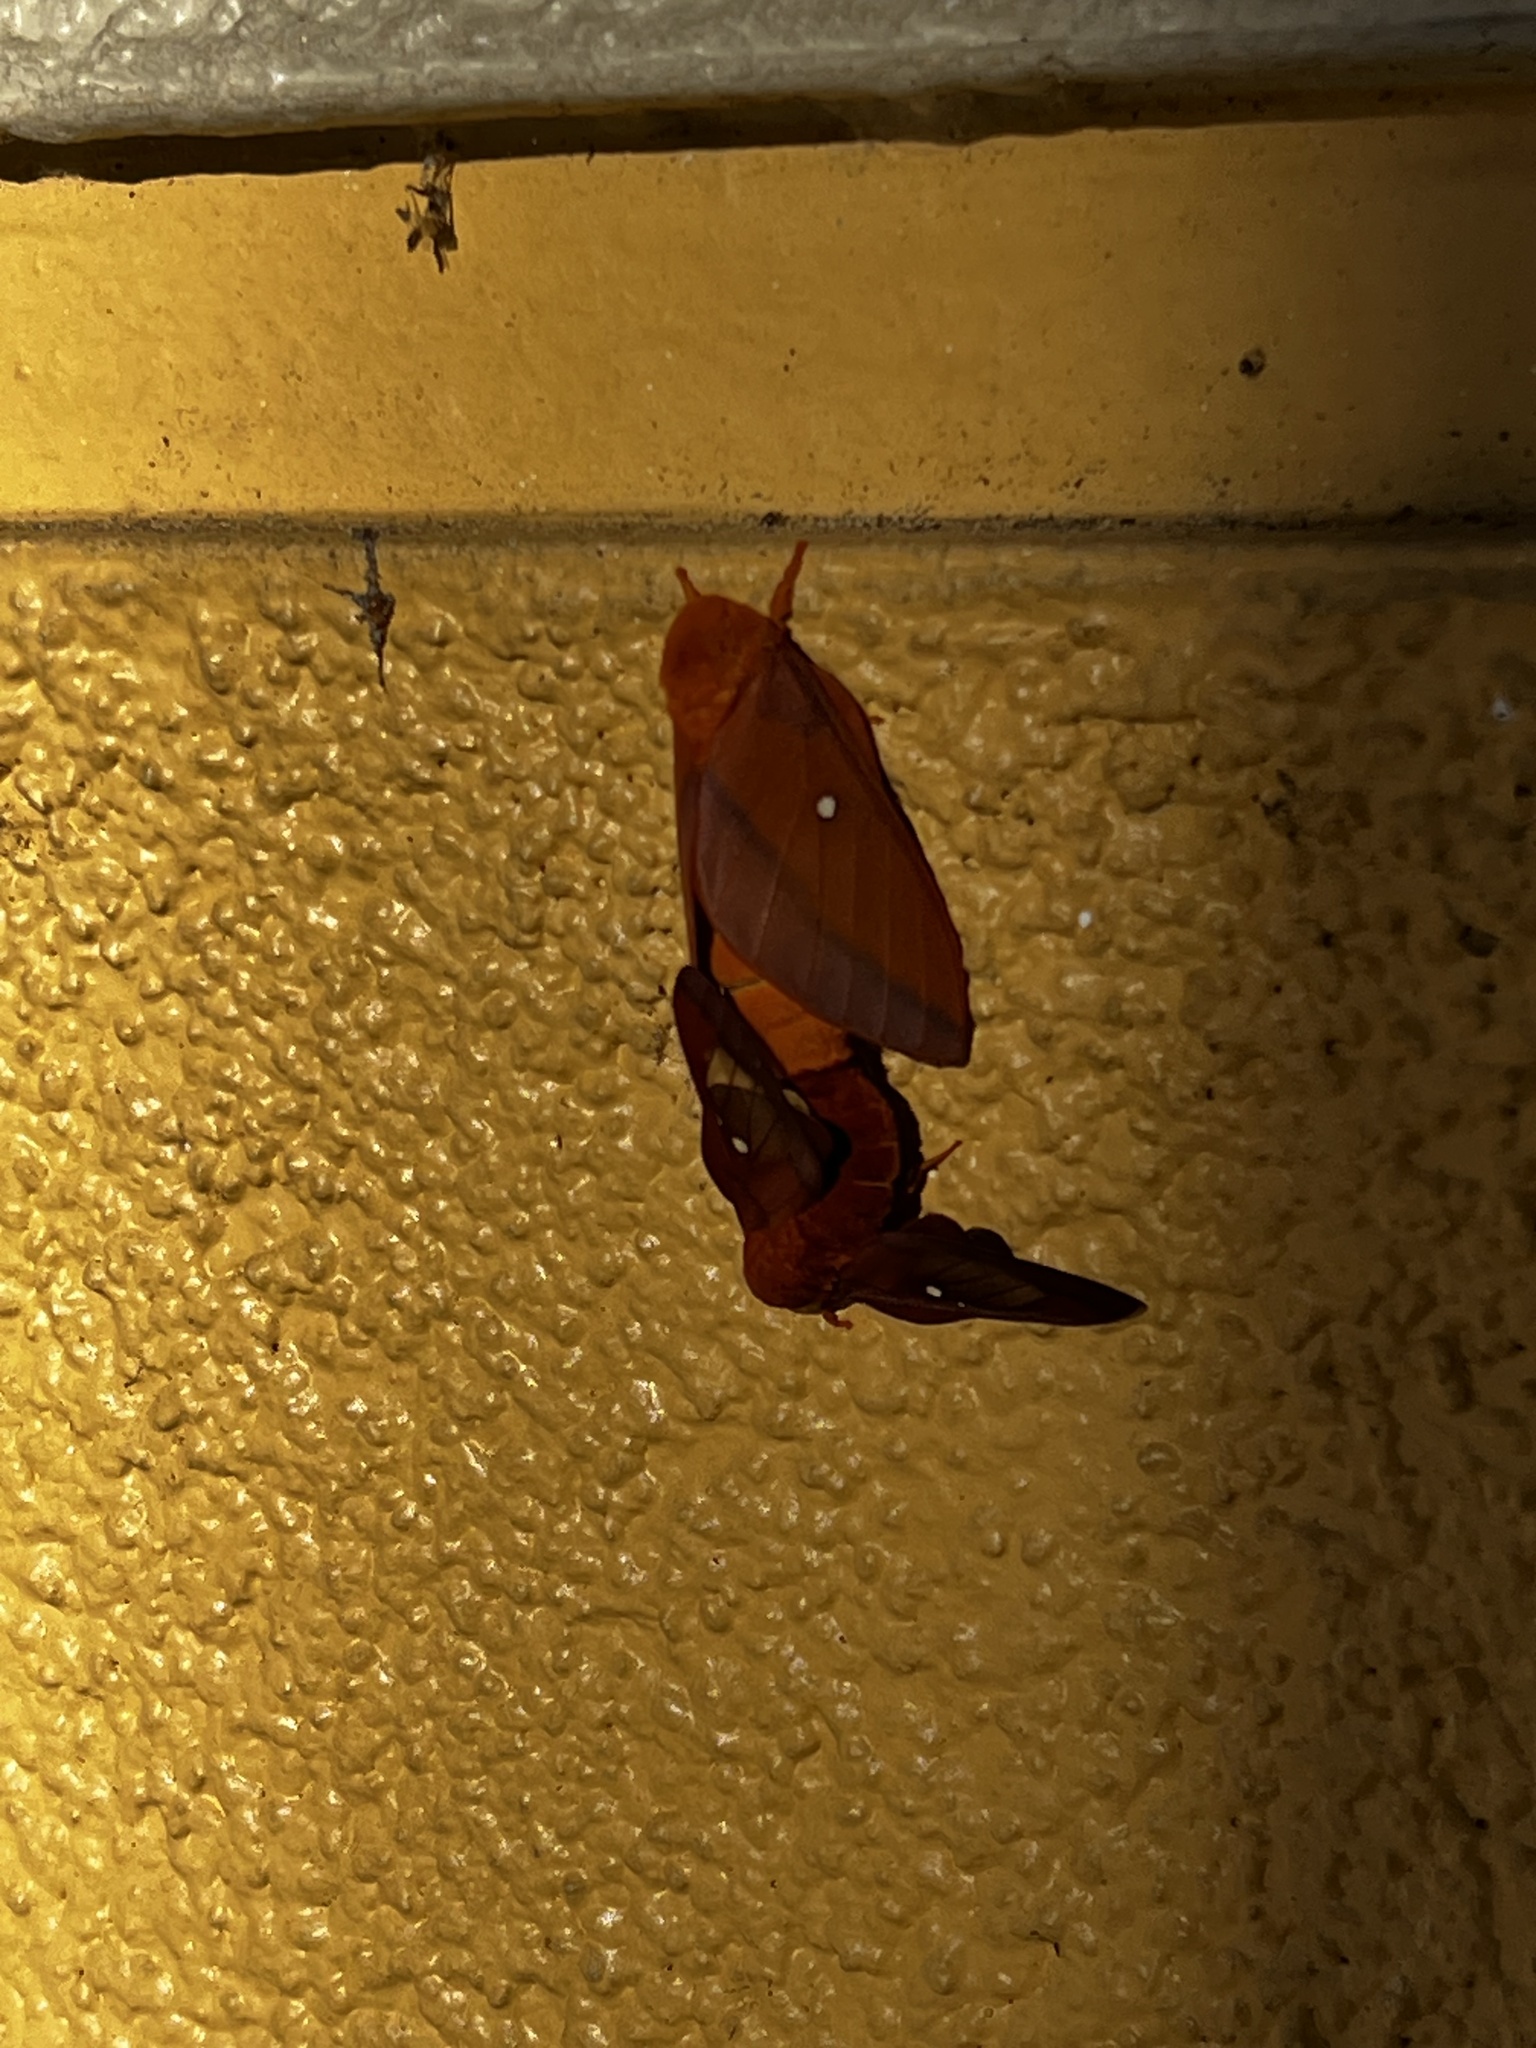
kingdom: Animalia
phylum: Arthropoda
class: Insecta
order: Lepidoptera
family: Saturniidae
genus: Anisota
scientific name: Anisota virginiensis
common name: Pink striped oakworm moth
